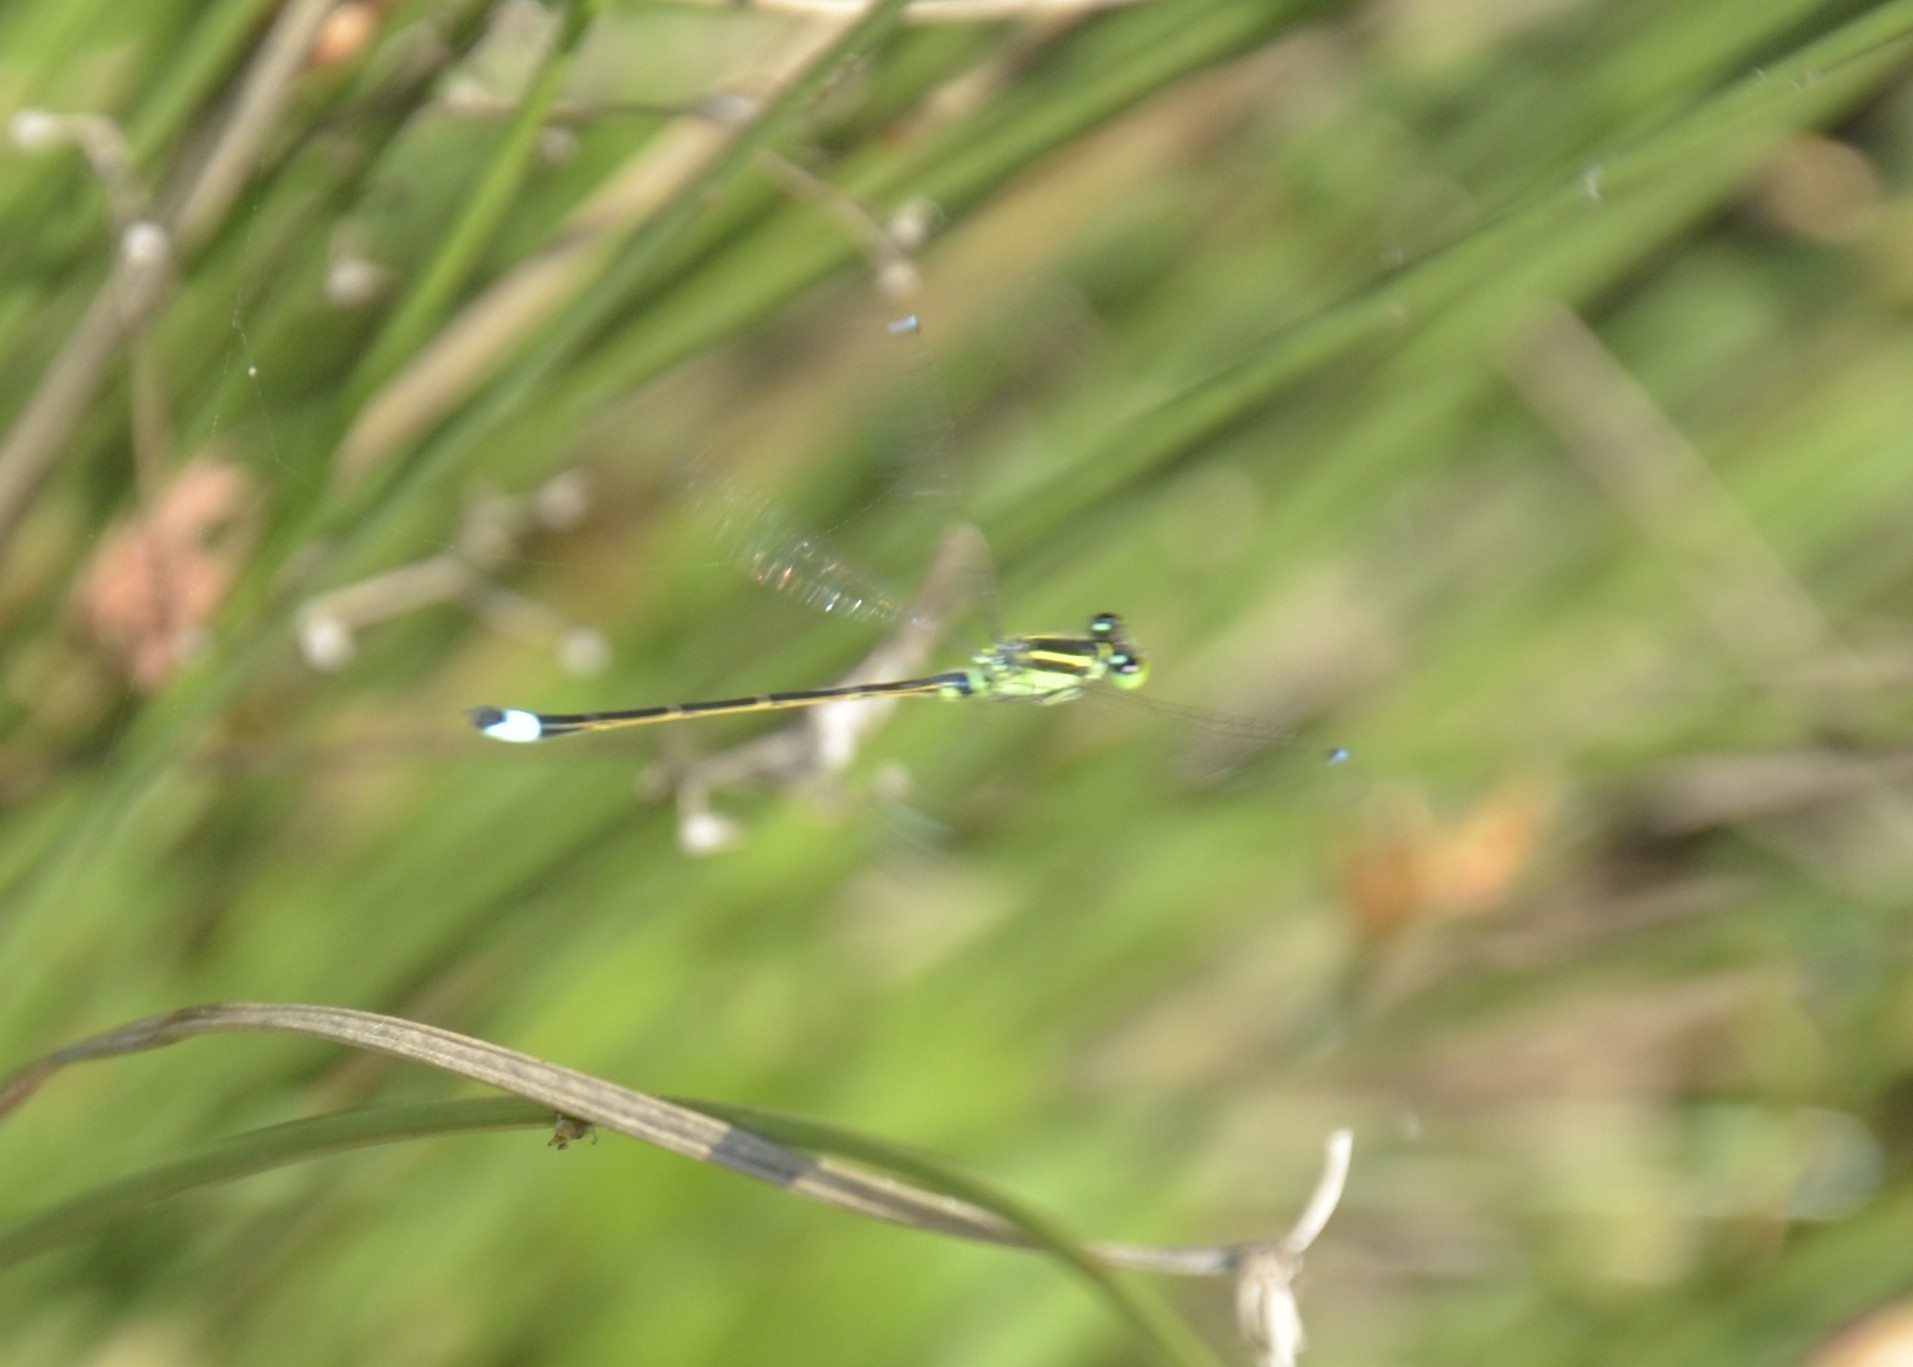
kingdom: Animalia
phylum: Arthropoda
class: Insecta
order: Odonata
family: Coenagrionidae
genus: Ischnura
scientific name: Ischnura senegalensis
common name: Tropical bluetail
